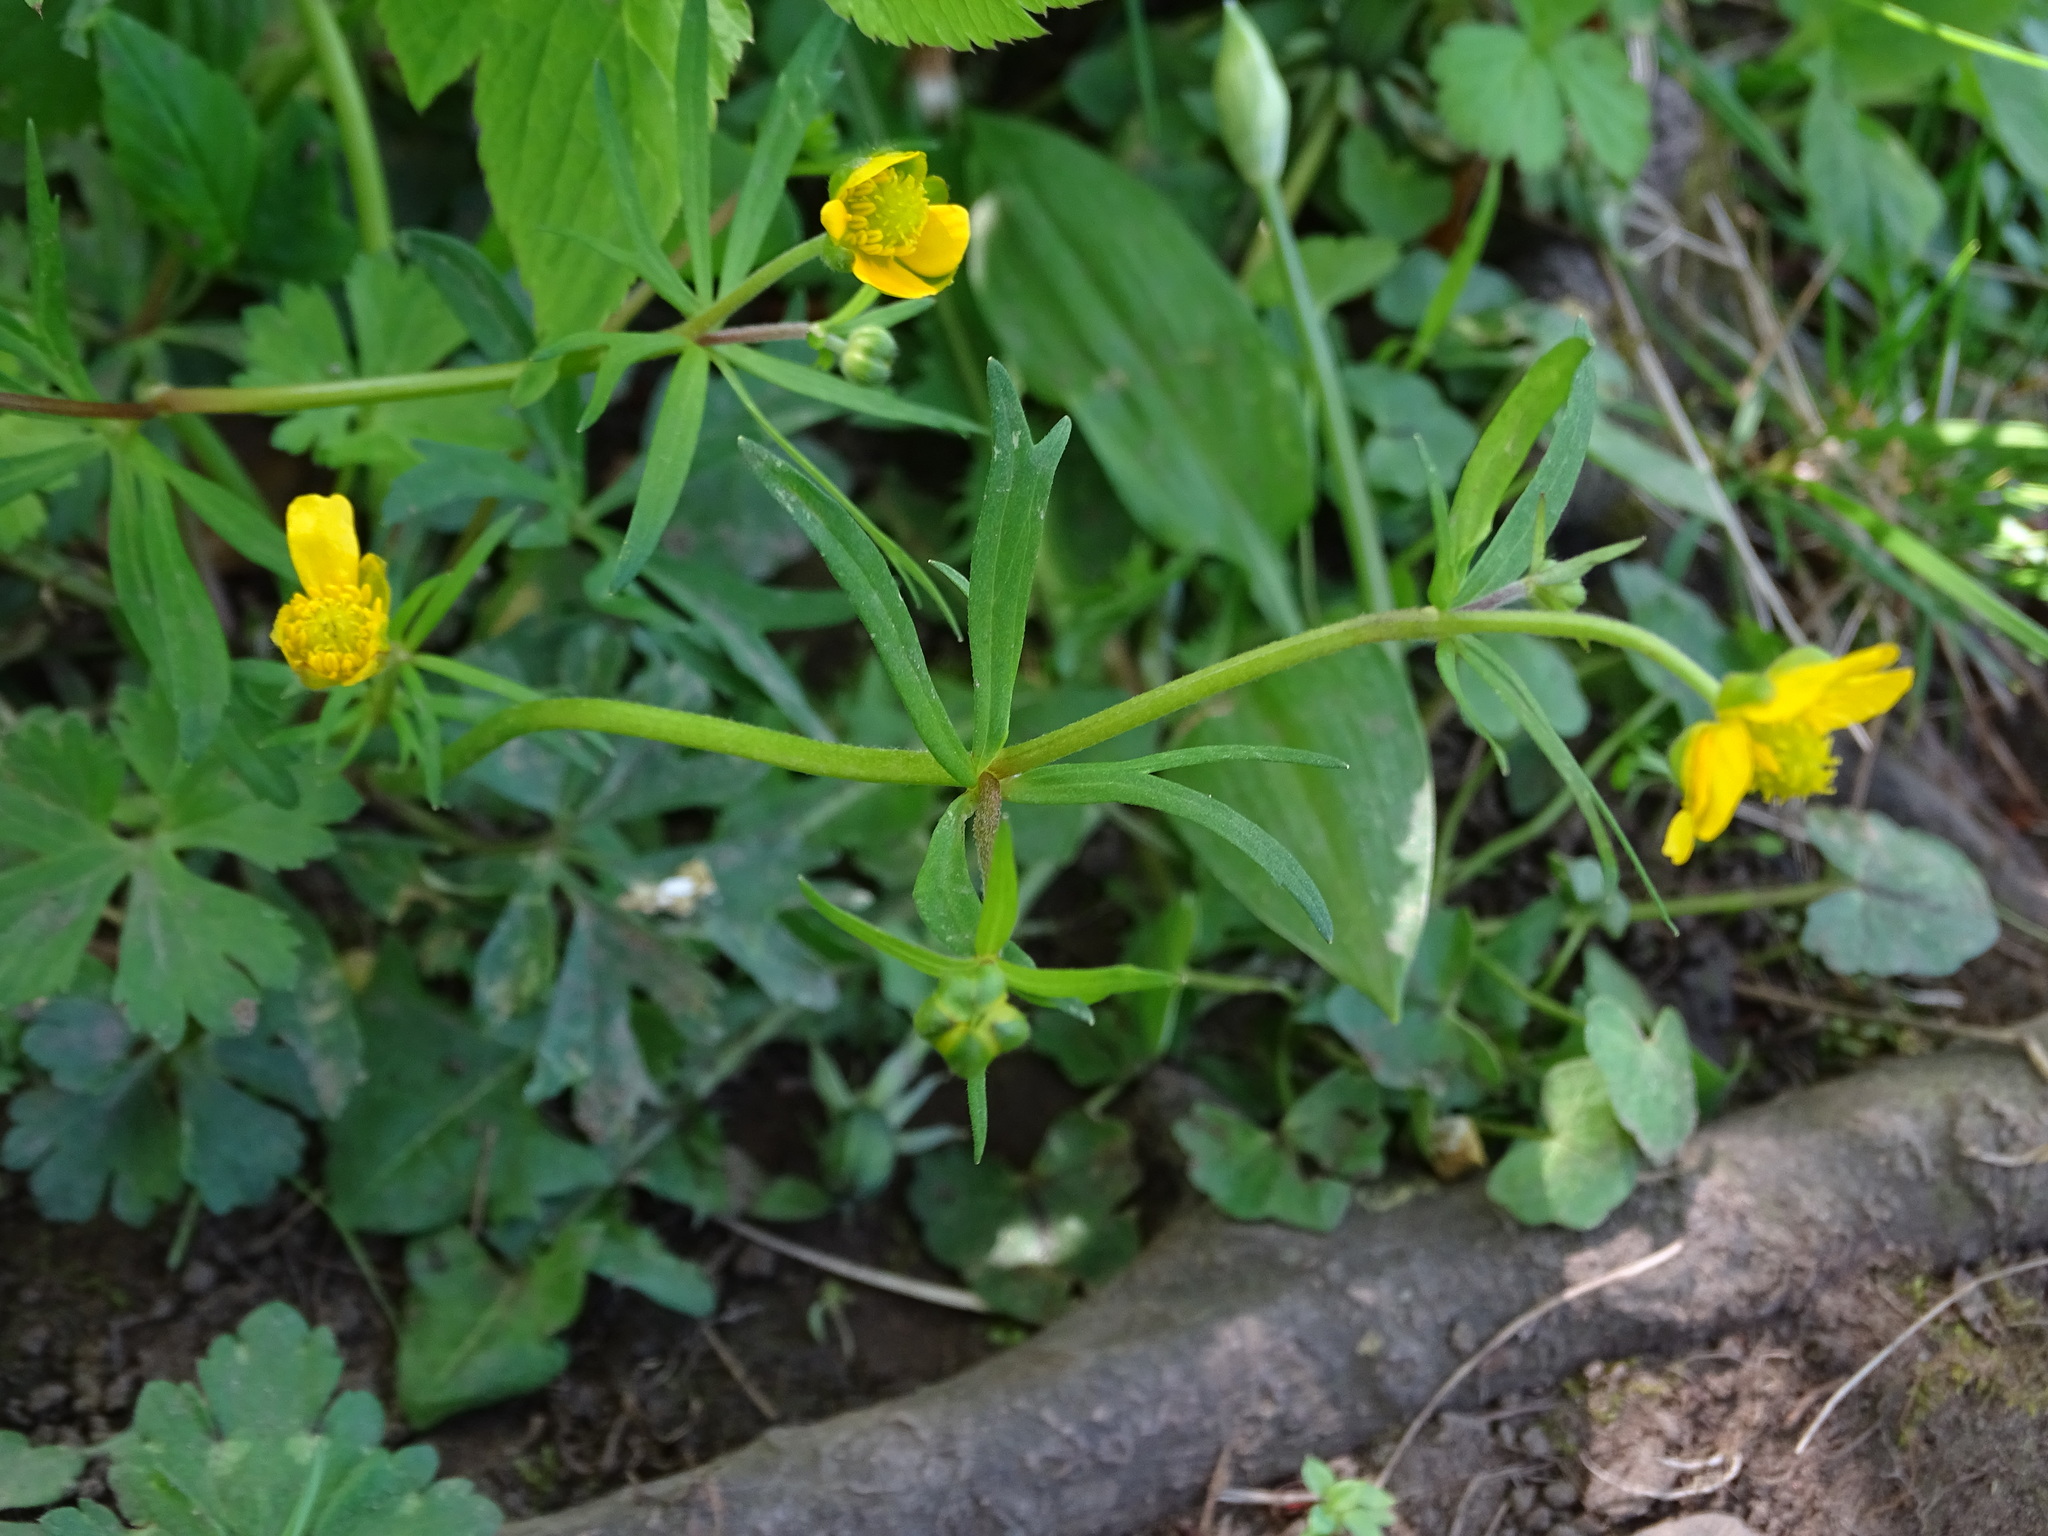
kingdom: Plantae
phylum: Tracheophyta
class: Magnoliopsida
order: Ranunculales
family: Ranunculaceae
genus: Ranunculus
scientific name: Ranunculus auricomus
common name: Goldilocks buttercup
